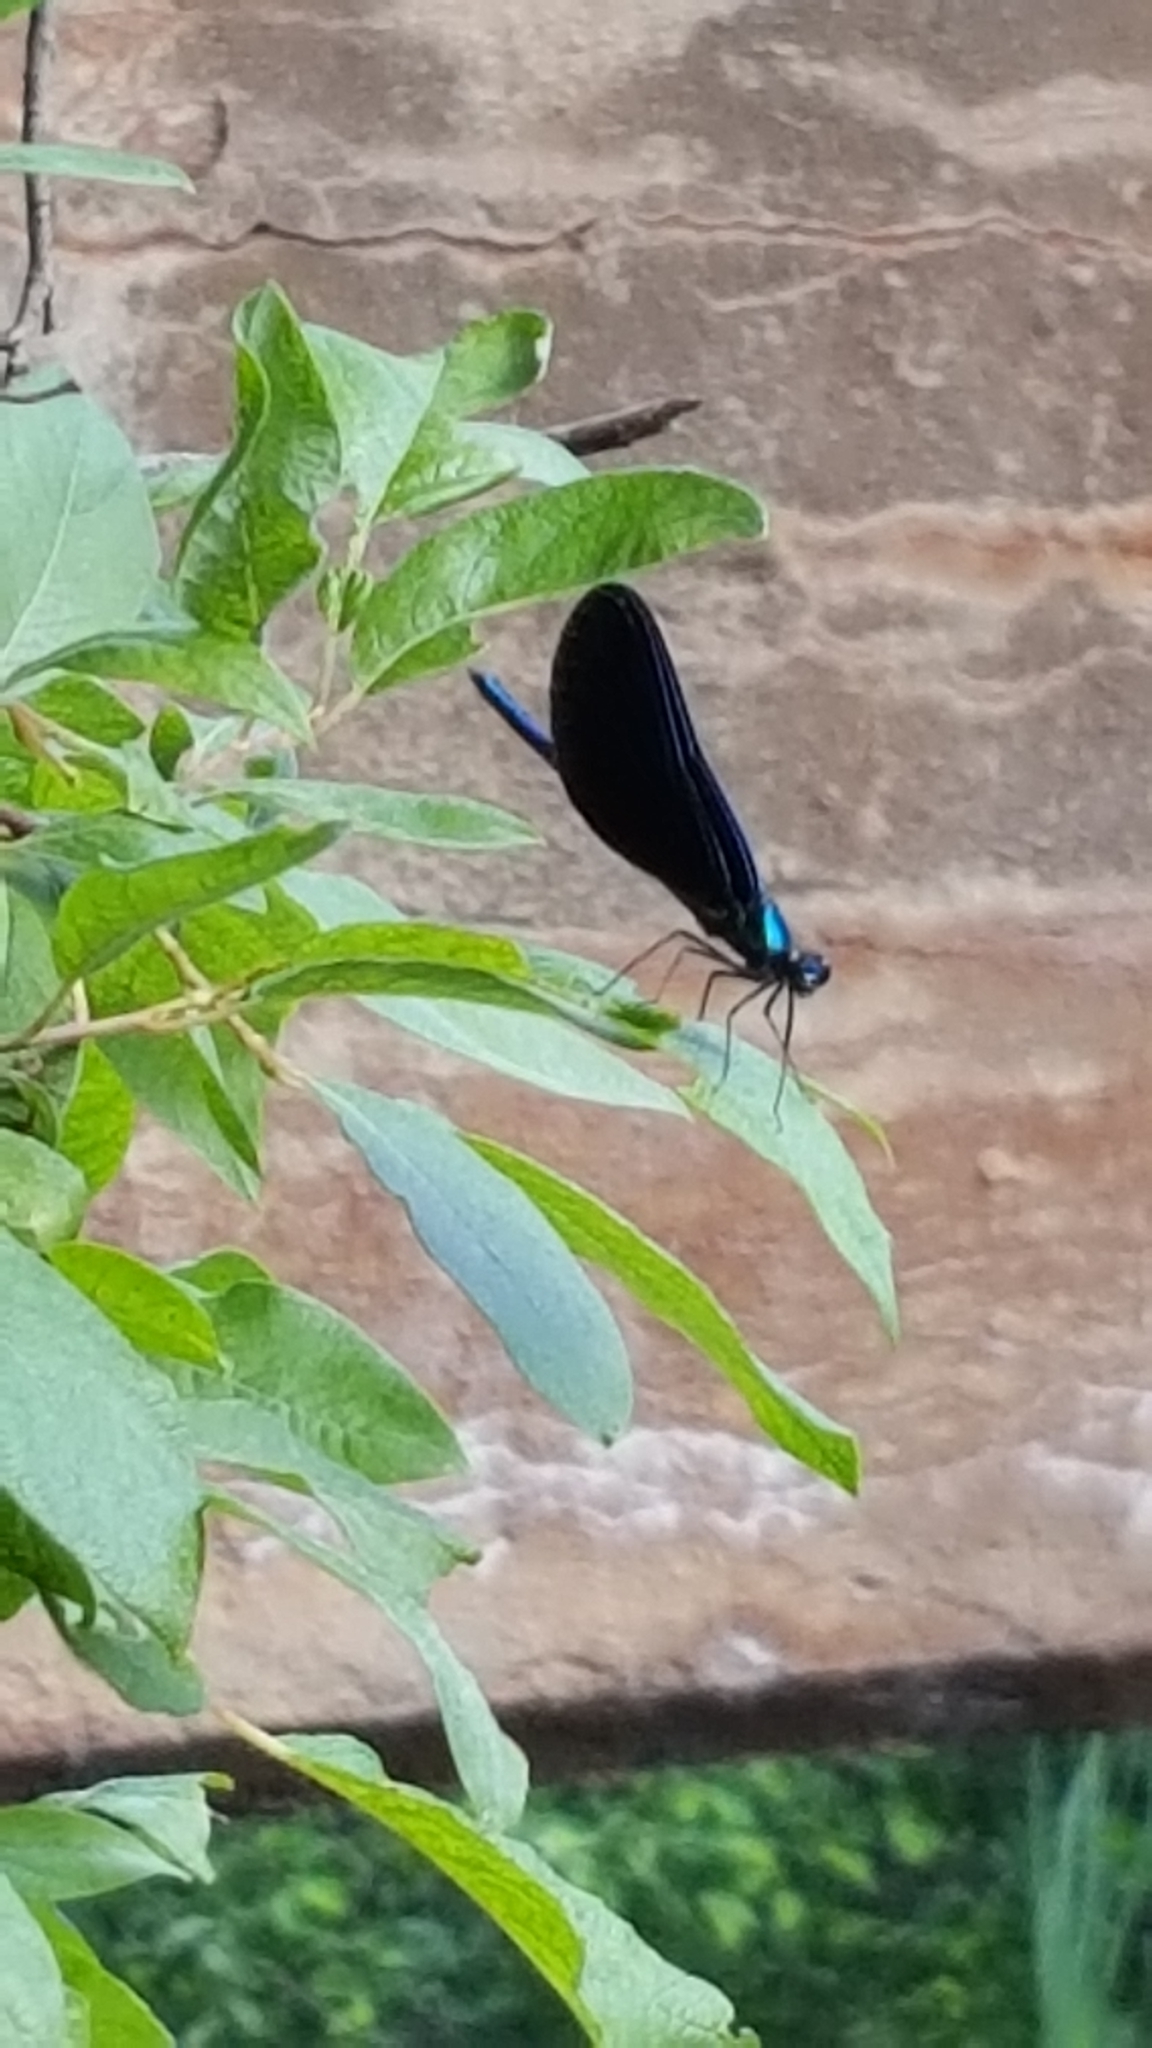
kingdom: Animalia
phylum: Arthropoda
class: Insecta
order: Odonata
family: Calopterygidae
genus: Calopteryx
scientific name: Calopteryx maculata
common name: Ebony jewelwing
